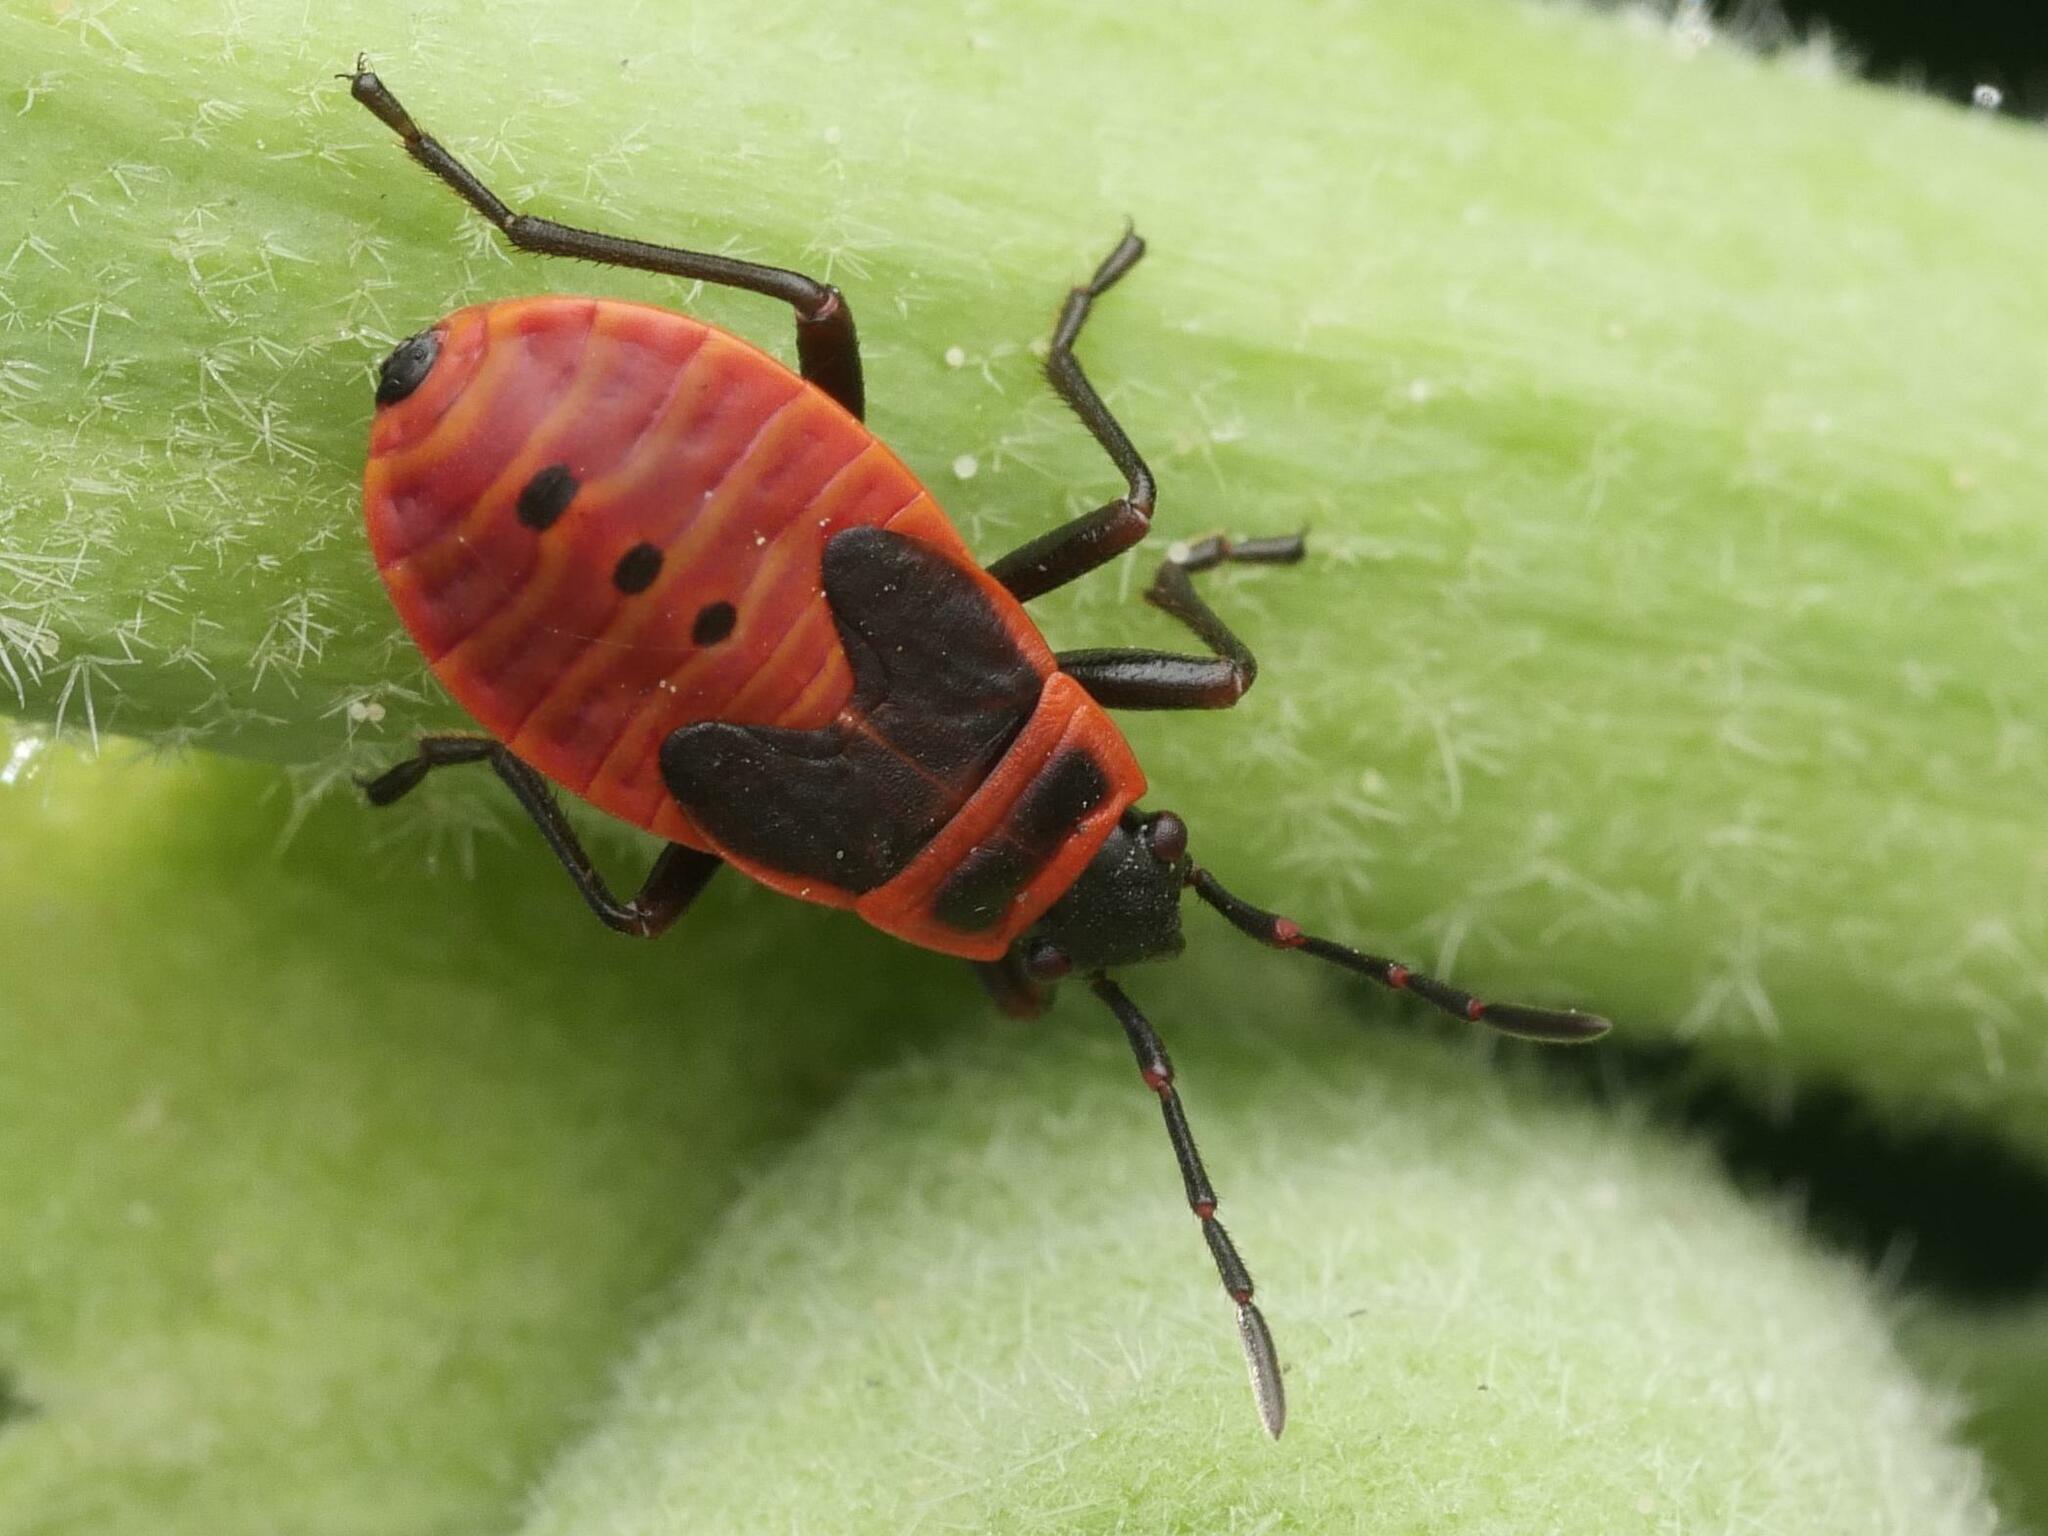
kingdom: Animalia
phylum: Arthropoda
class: Insecta
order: Hemiptera
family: Pyrrhocoridae
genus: Pyrrhocoris
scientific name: Pyrrhocoris apterus
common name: Firebug
